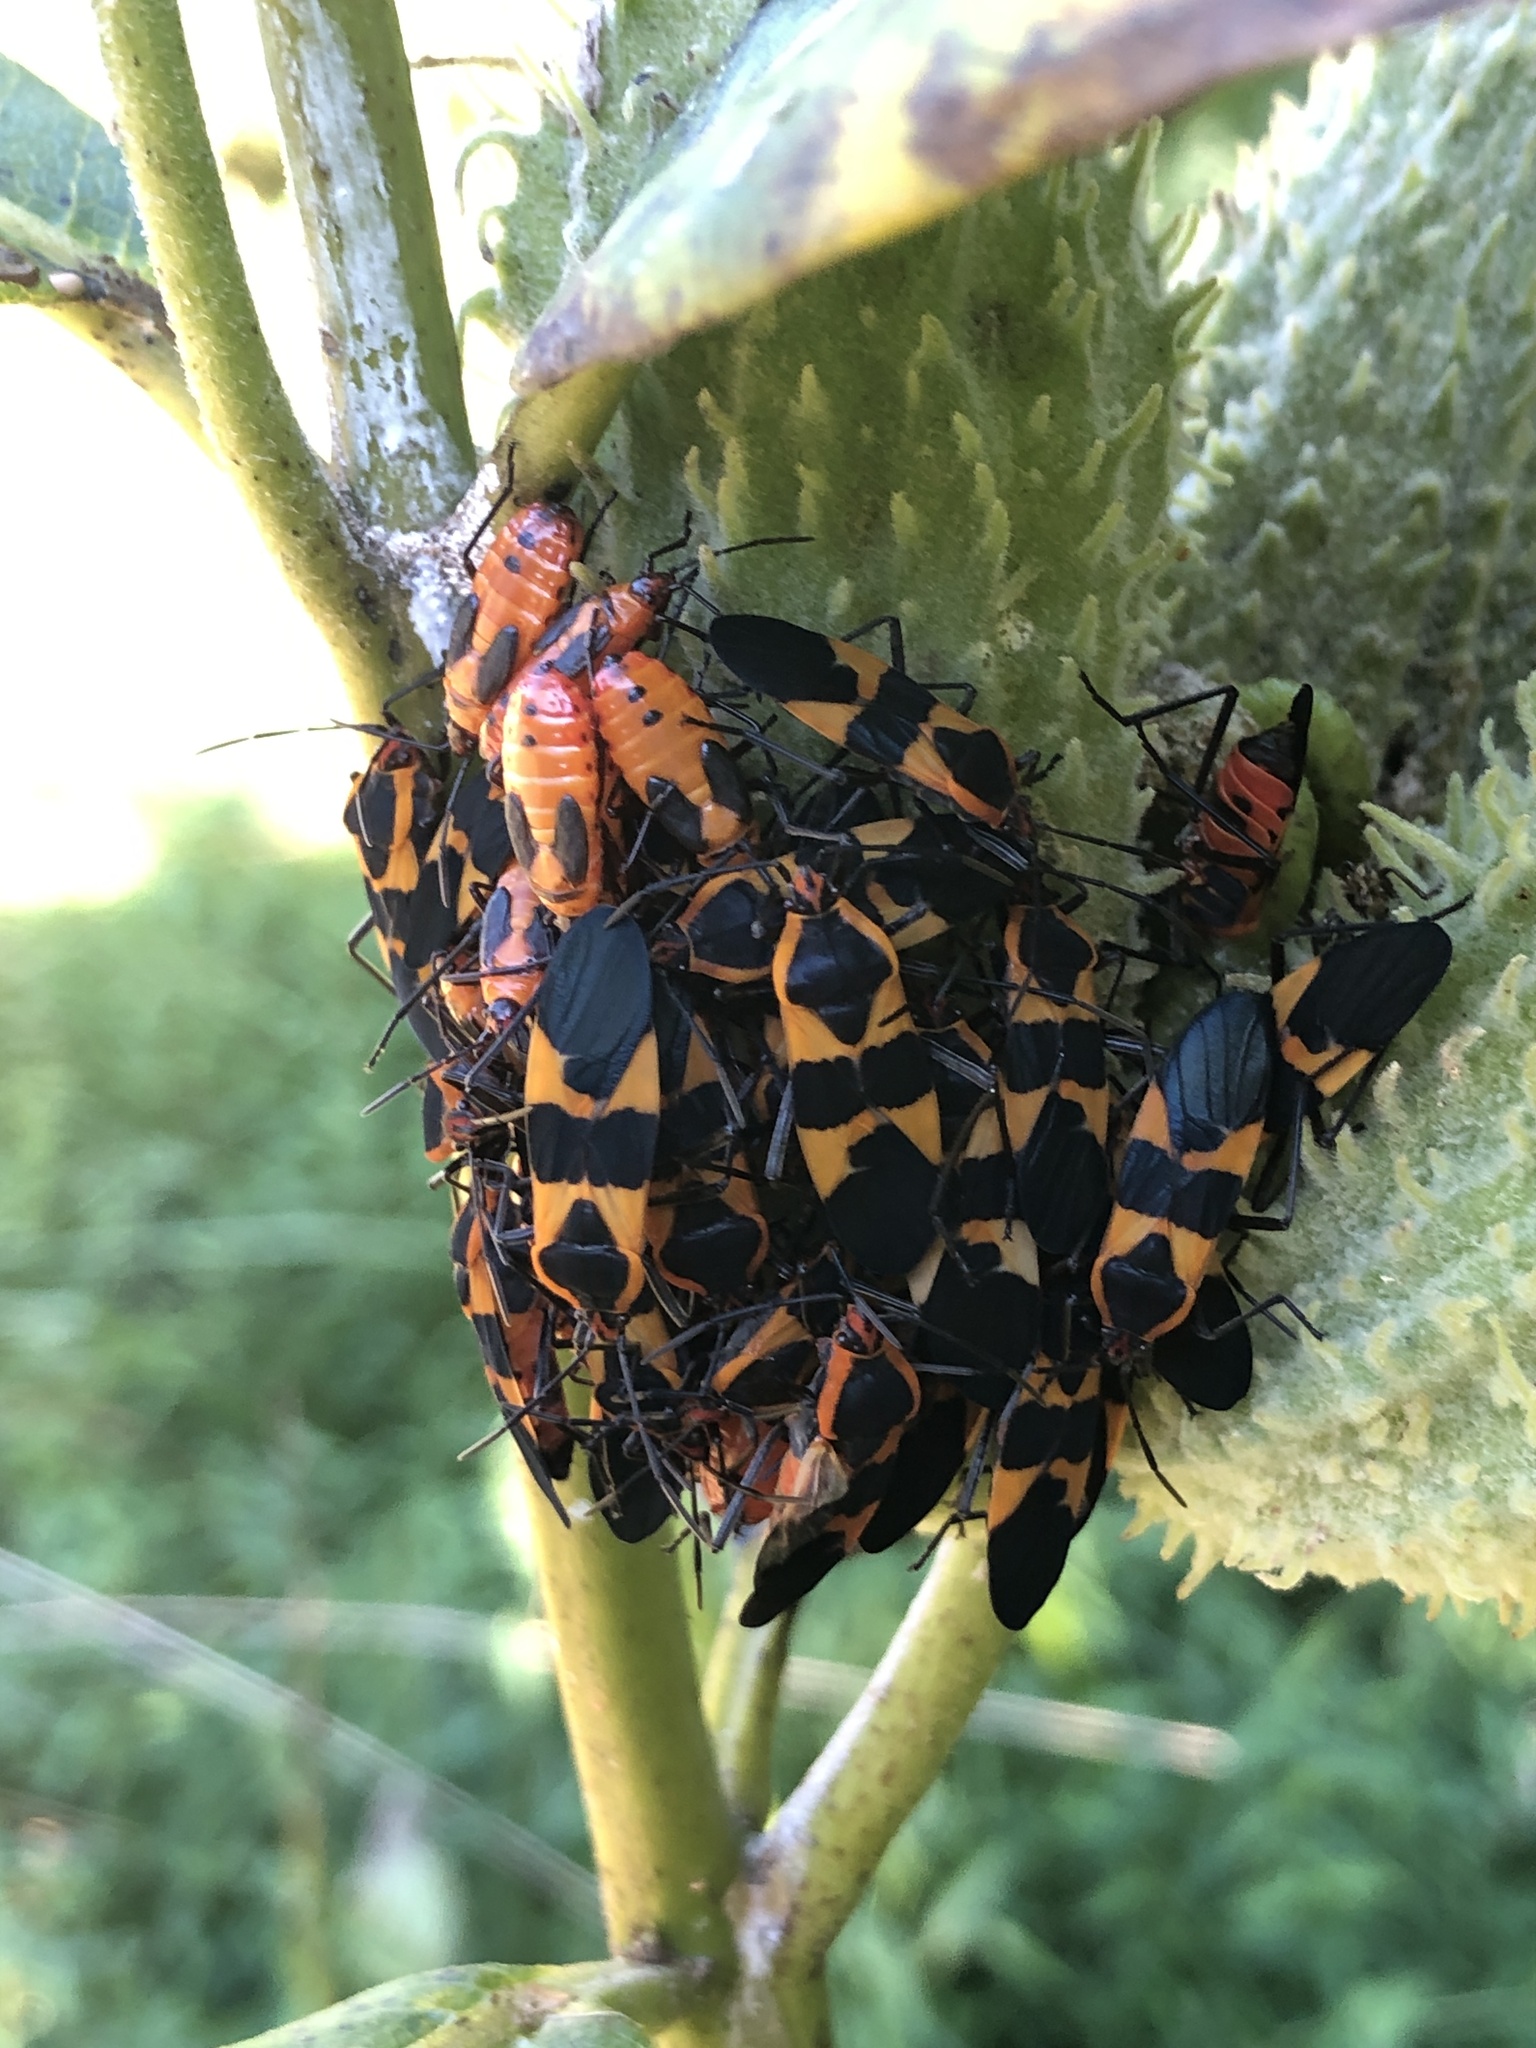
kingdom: Animalia
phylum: Arthropoda
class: Insecta
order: Hemiptera
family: Lygaeidae
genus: Oncopeltus
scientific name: Oncopeltus fasciatus
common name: Large milkweed bug
